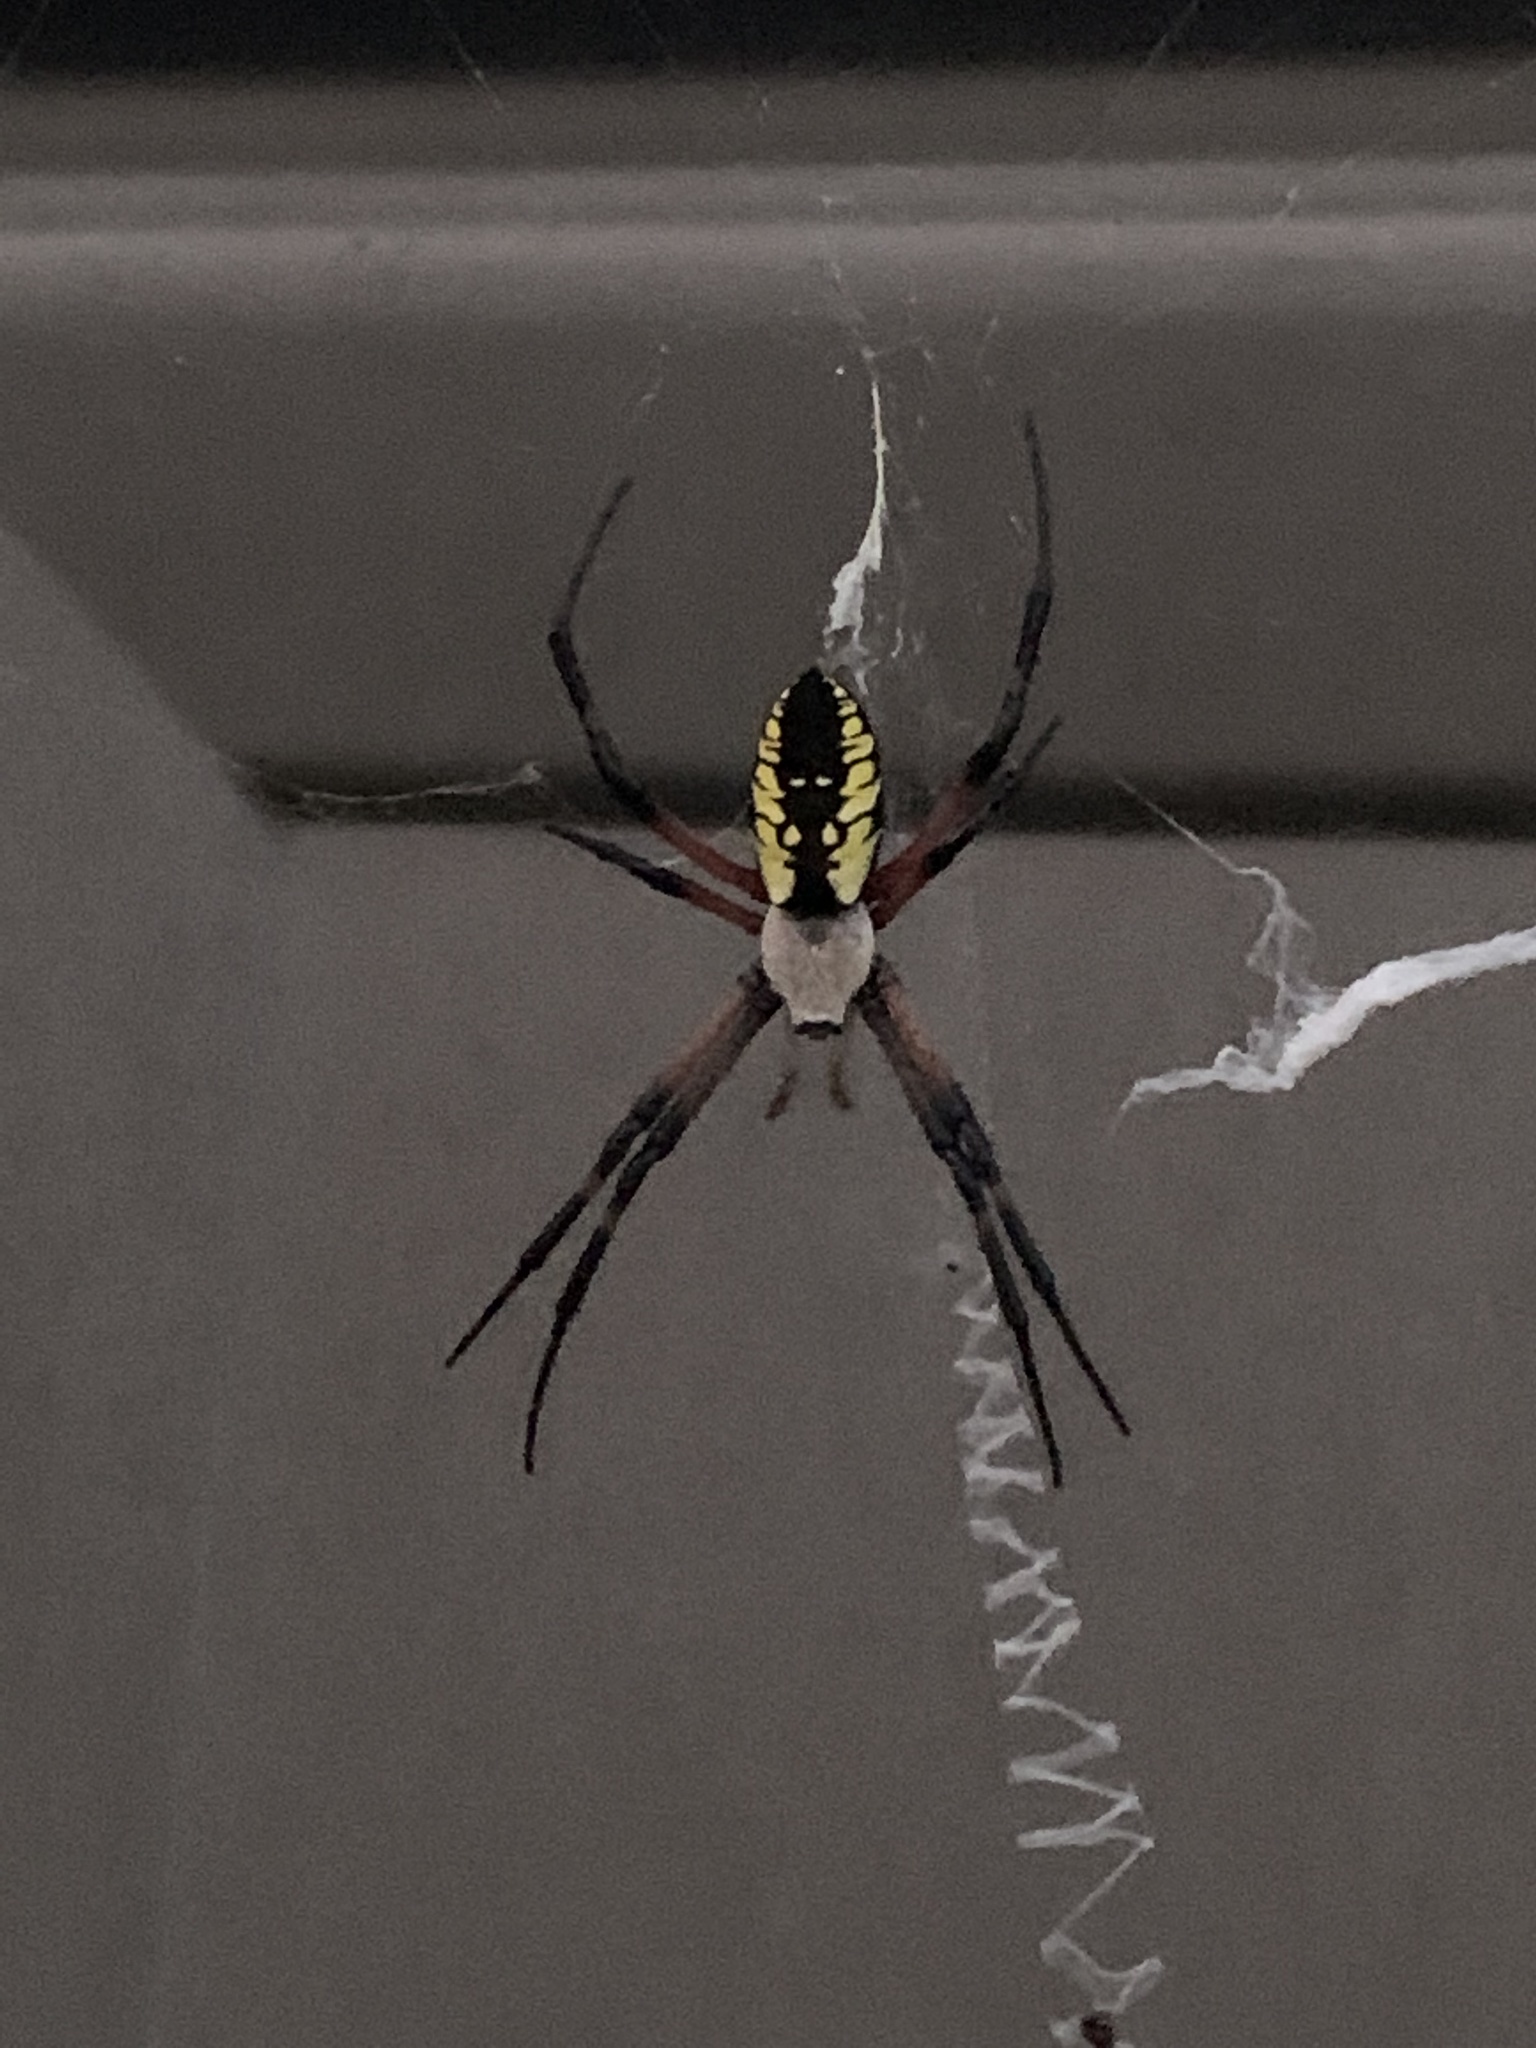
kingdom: Animalia
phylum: Arthropoda
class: Arachnida
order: Araneae
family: Araneidae
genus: Argiope
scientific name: Argiope aurantia
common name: Orb weavers
